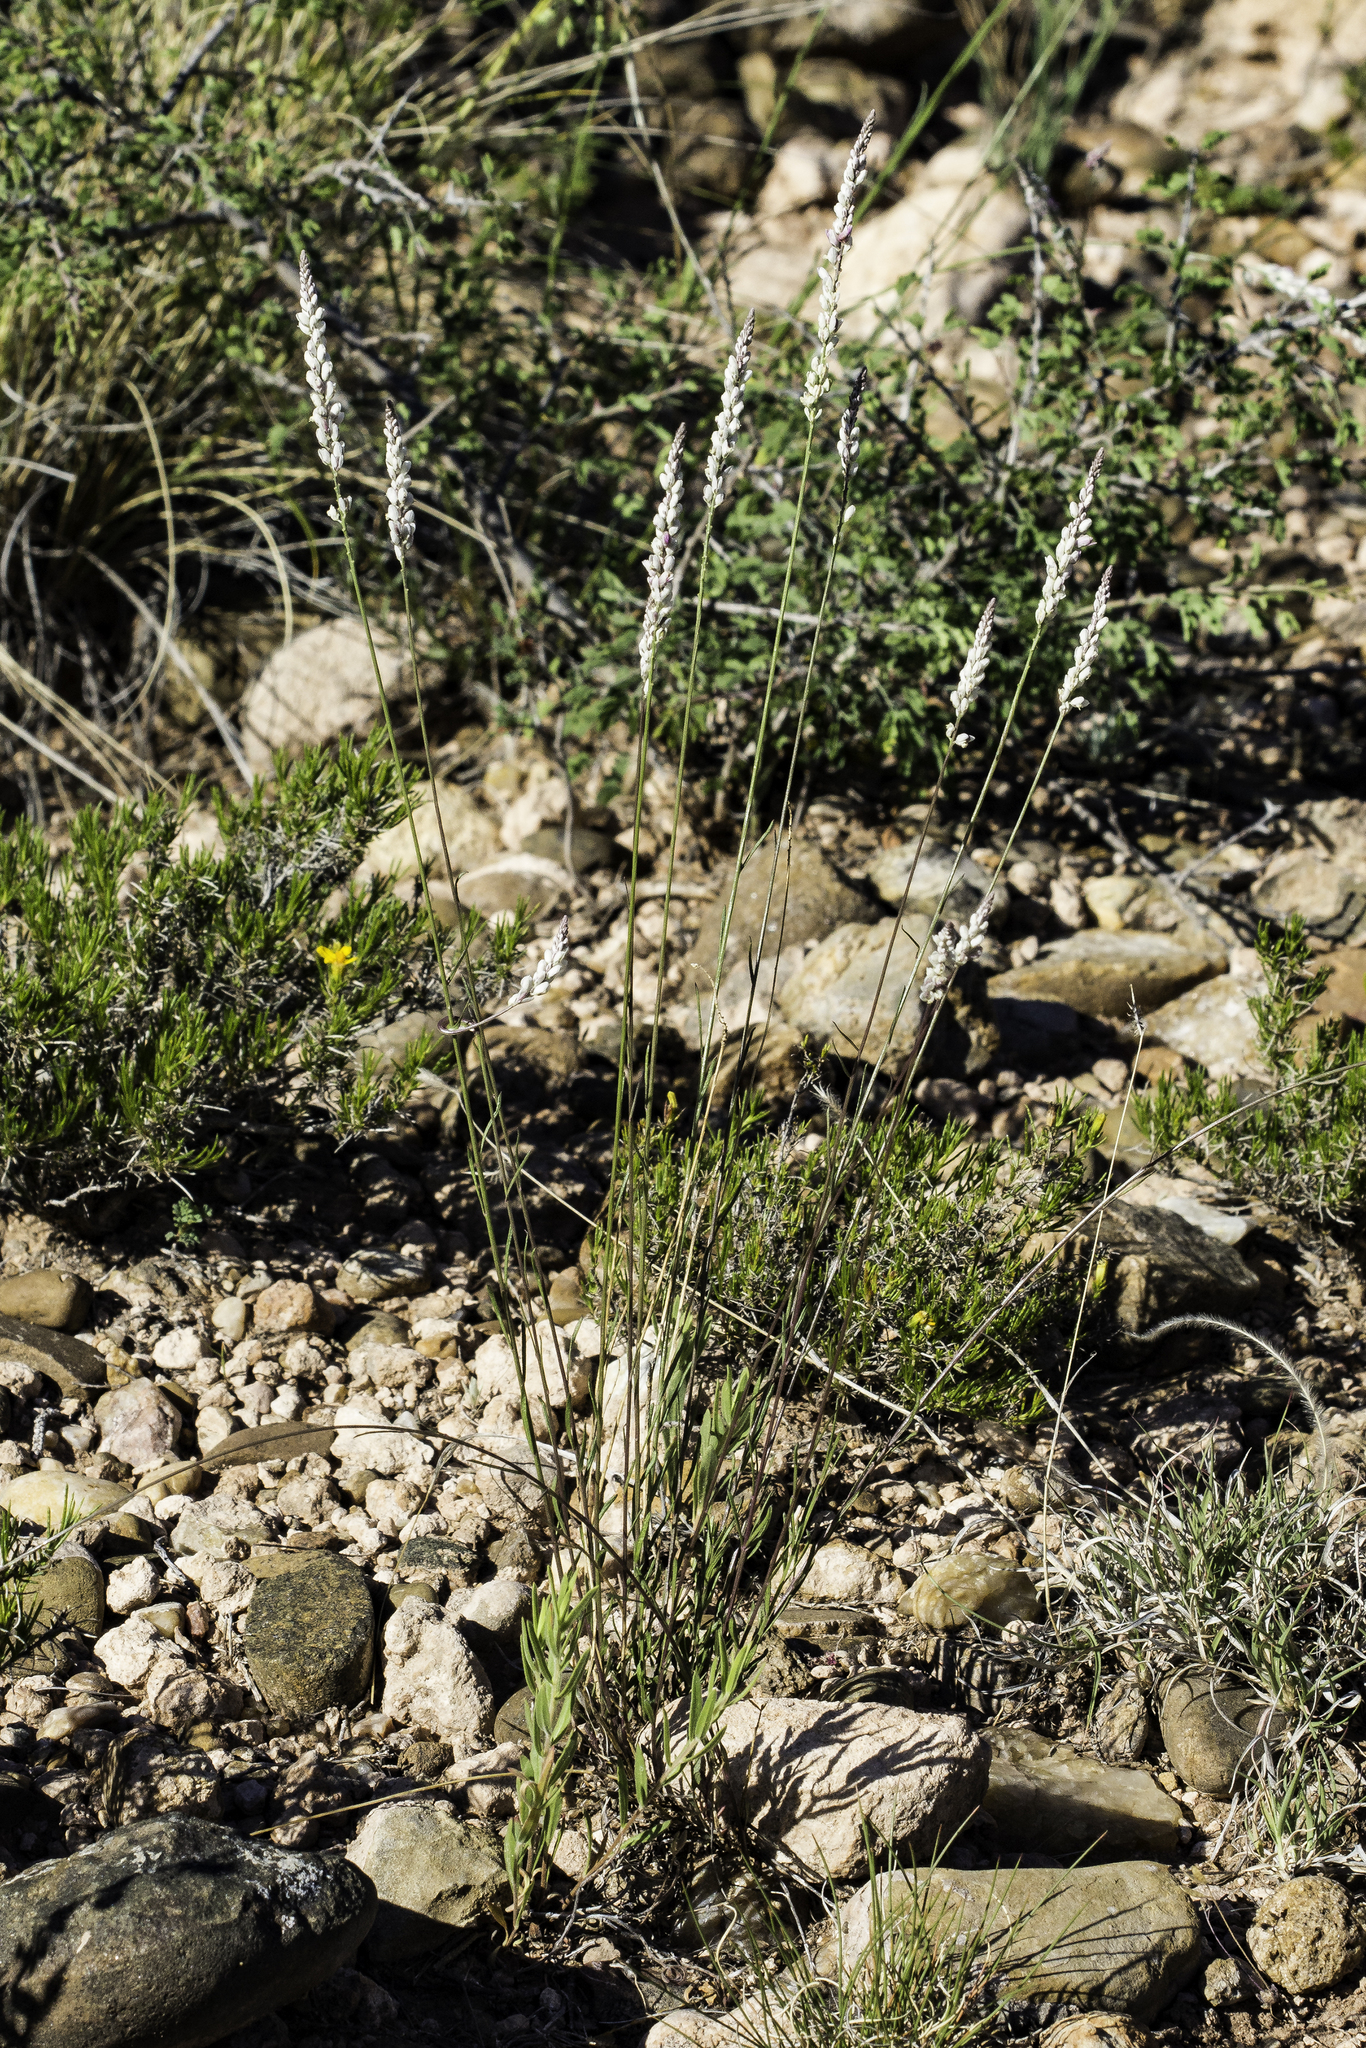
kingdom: Plantae
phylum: Tracheophyta
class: Magnoliopsida
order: Fabales
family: Polygalaceae
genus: Polygala
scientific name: Polygala alba
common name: White milkwort
